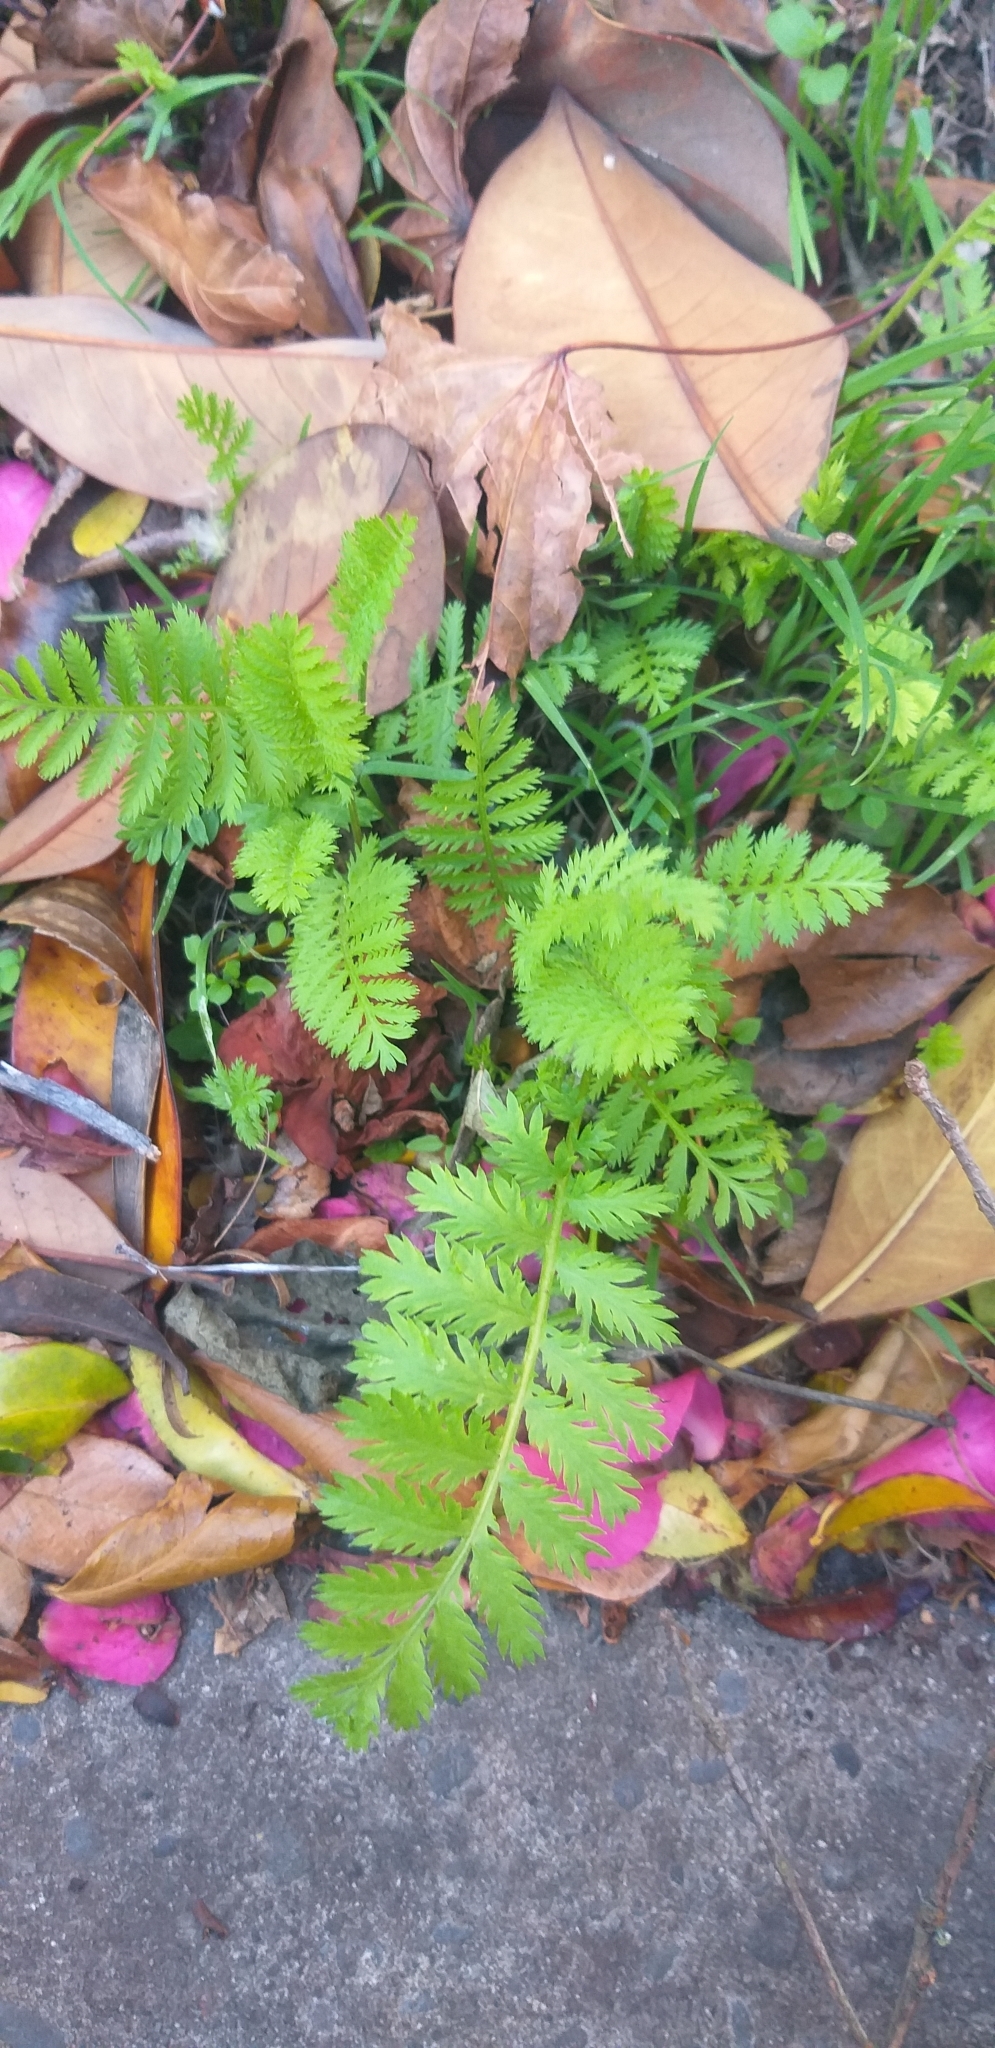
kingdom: Plantae
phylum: Tracheophyta
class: Magnoliopsida
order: Asterales
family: Asteraceae
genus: Tanacetum
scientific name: Tanacetum vulgare
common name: Common tansy
